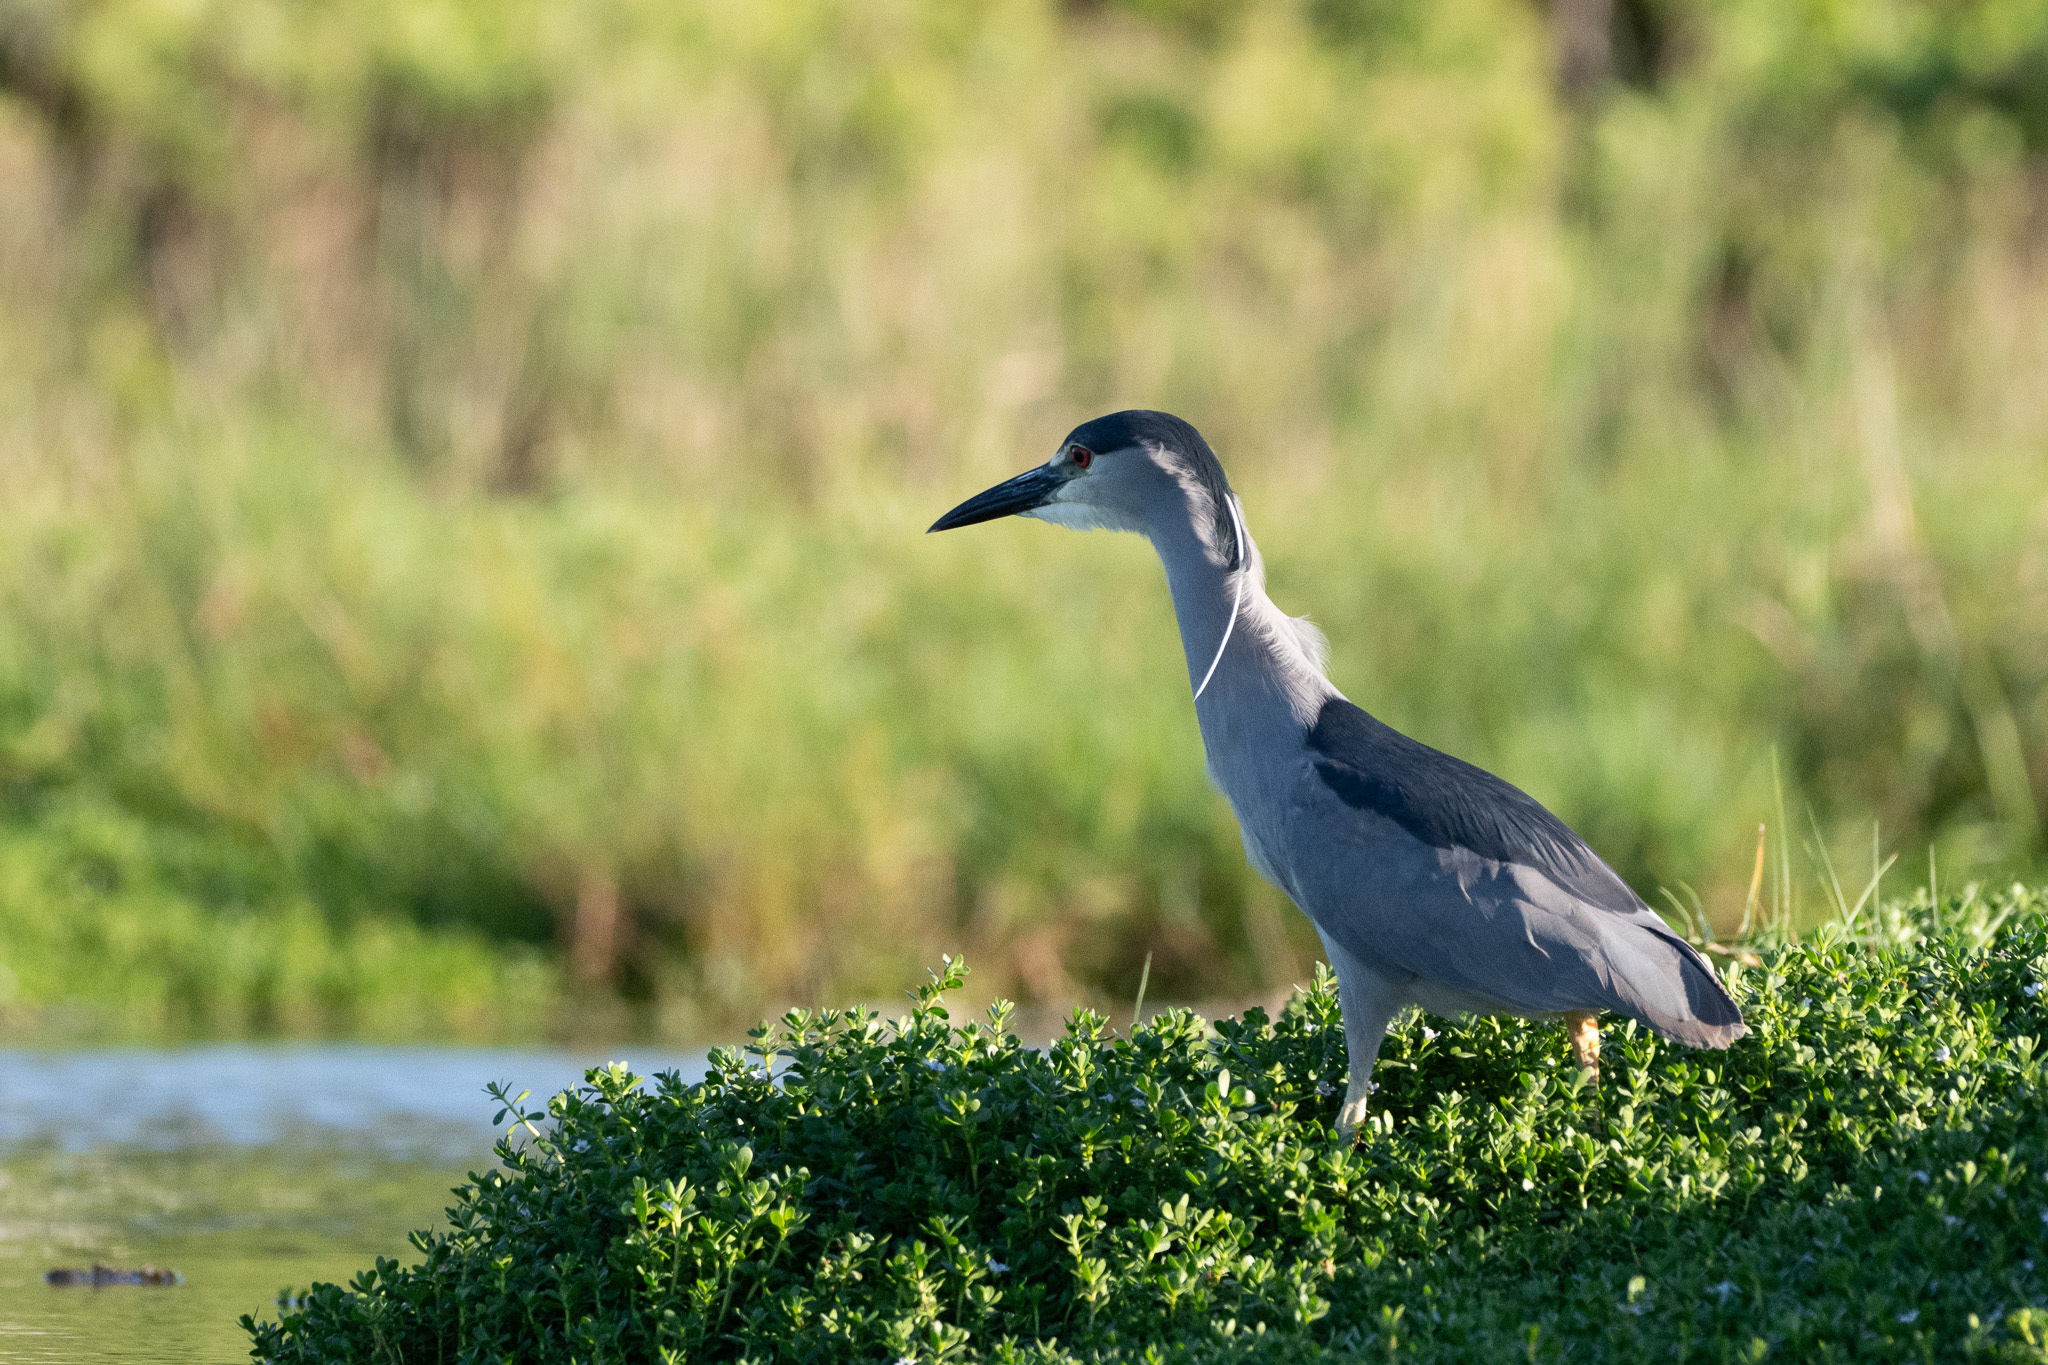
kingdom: Animalia
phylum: Chordata
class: Aves
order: Pelecaniformes
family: Ardeidae
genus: Nycticorax
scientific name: Nycticorax nycticorax
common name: Black-crowned night heron
